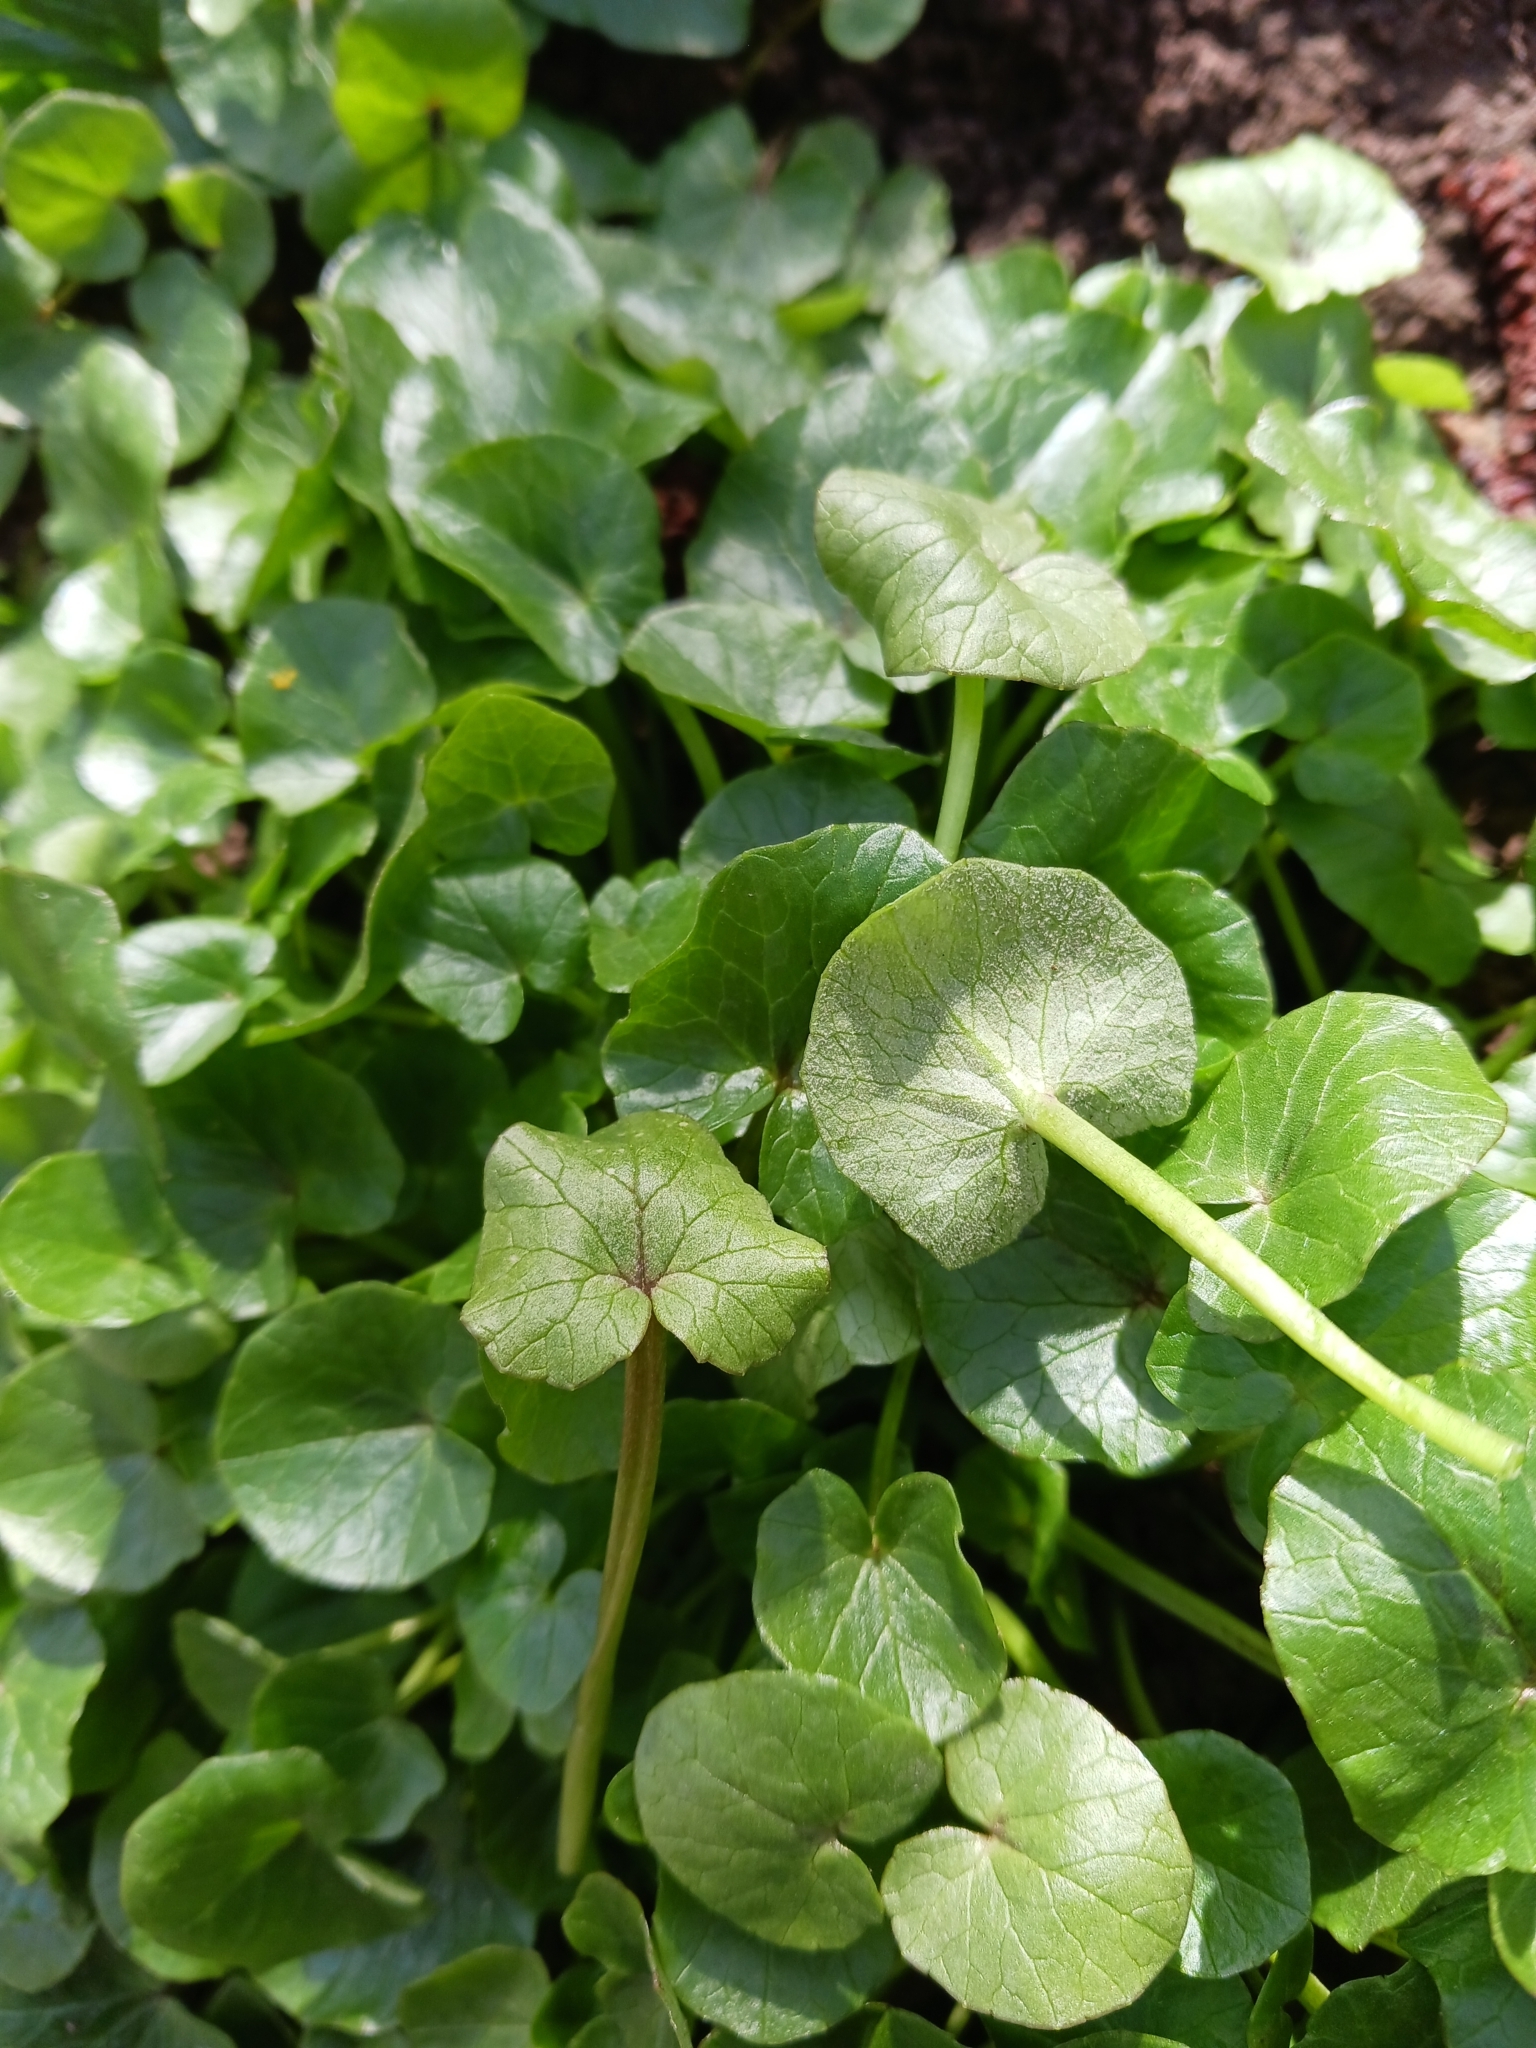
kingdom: Chromista
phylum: Oomycota
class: Peronosporea
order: Peronosporales
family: Peronosporaceae
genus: Peronospora
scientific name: Peronospora ficariae
